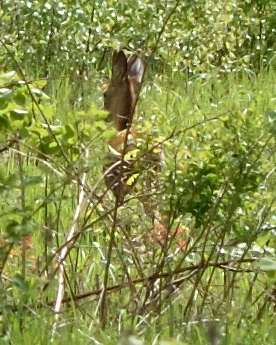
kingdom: Animalia
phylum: Chordata
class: Mammalia
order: Artiodactyla
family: Cervidae
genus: Capreolus
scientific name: Capreolus capreolus
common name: Western roe deer
